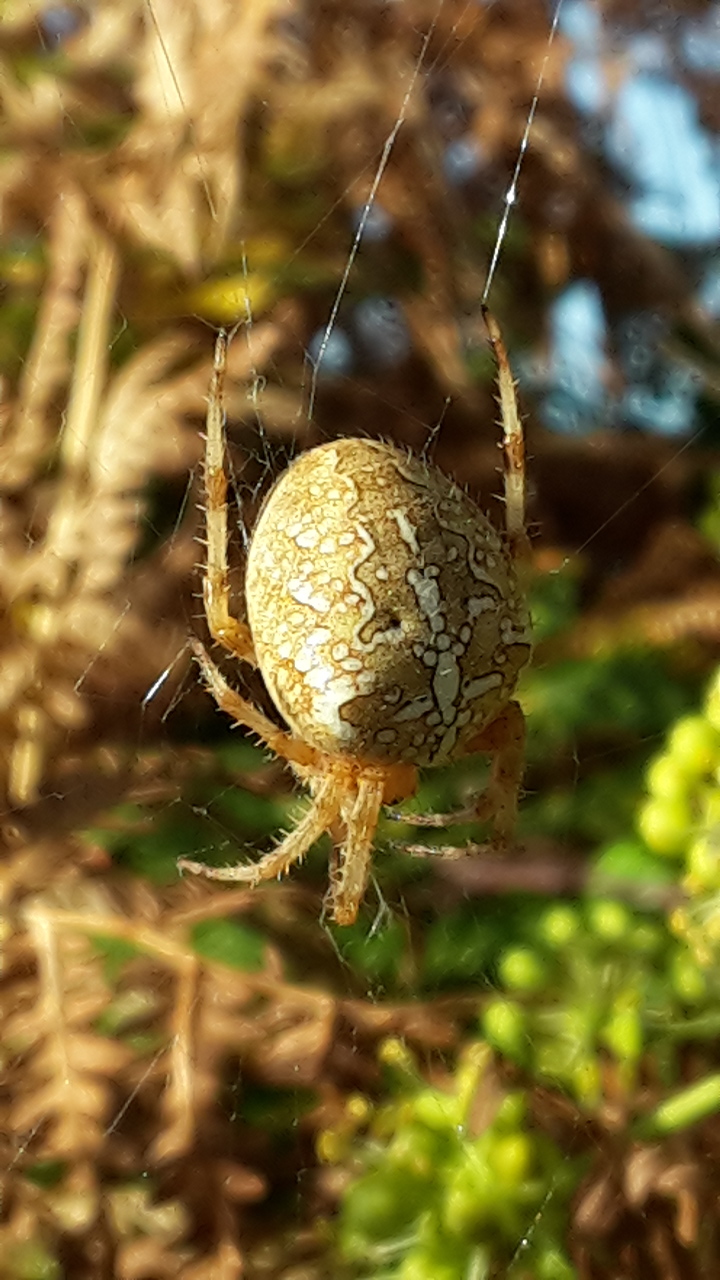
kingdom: Animalia
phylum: Arthropoda
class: Arachnida
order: Araneae
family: Araneidae
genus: Araneus
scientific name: Araneus diadematus
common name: Cross orbweaver
